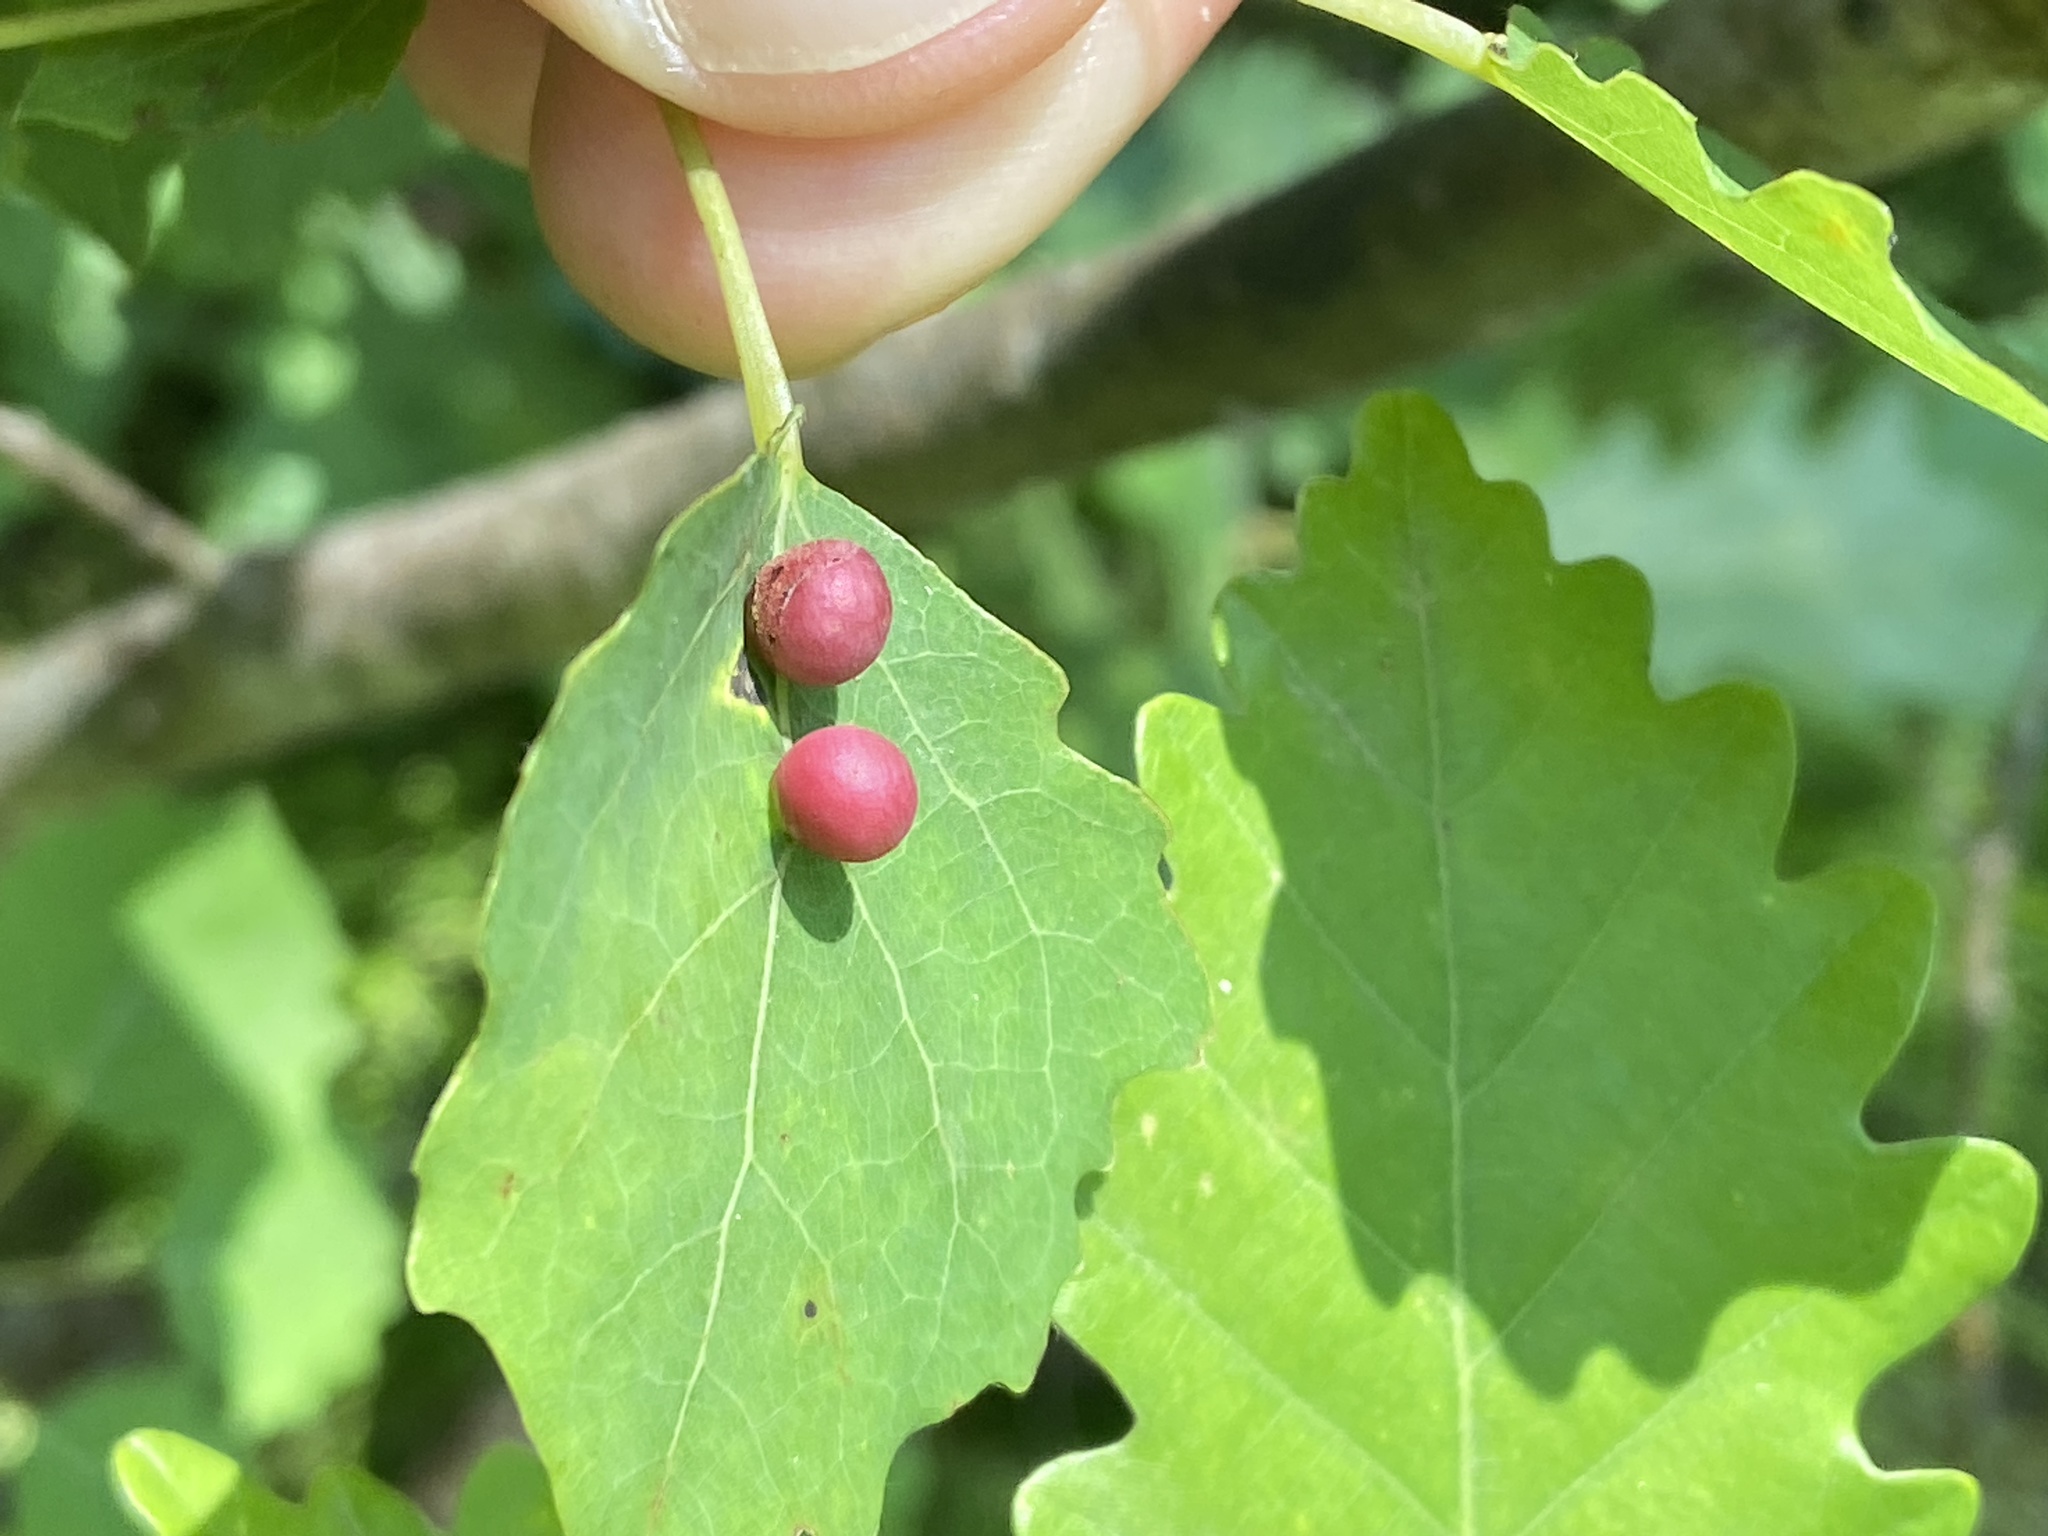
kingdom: Animalia
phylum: Arthropoda
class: Insecta
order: Diptera
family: Cecidomyiidae
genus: Harmandiola
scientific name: Harmandiola tremulae
